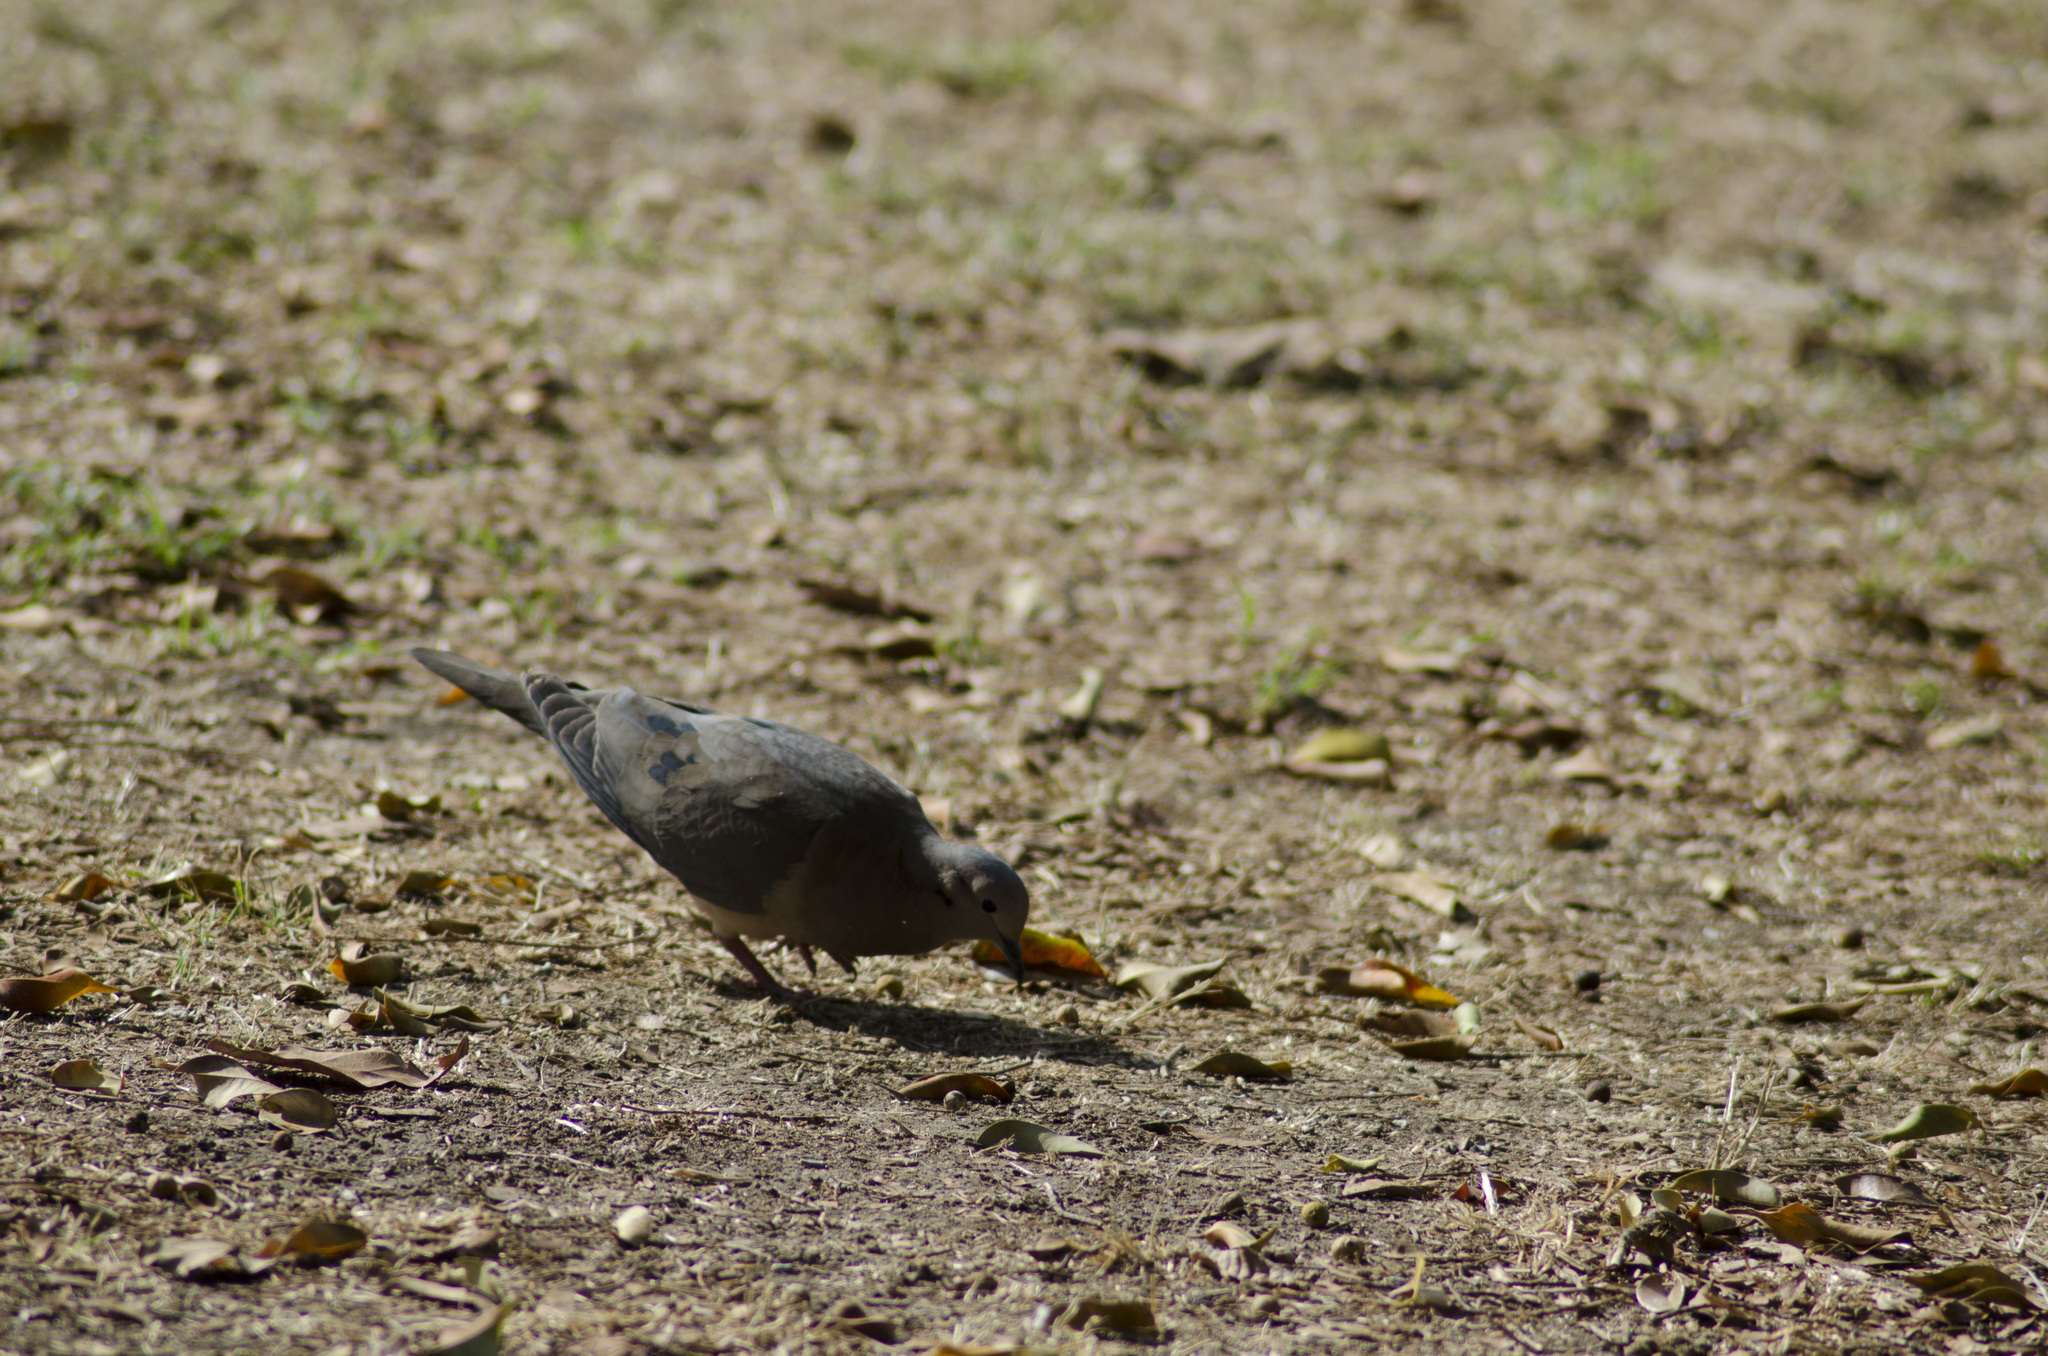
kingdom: Animalia
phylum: Chordata
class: Aves
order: Columbiformes
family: Columbidae
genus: Zenaida
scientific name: Zenaida auriculata
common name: Eared dove
